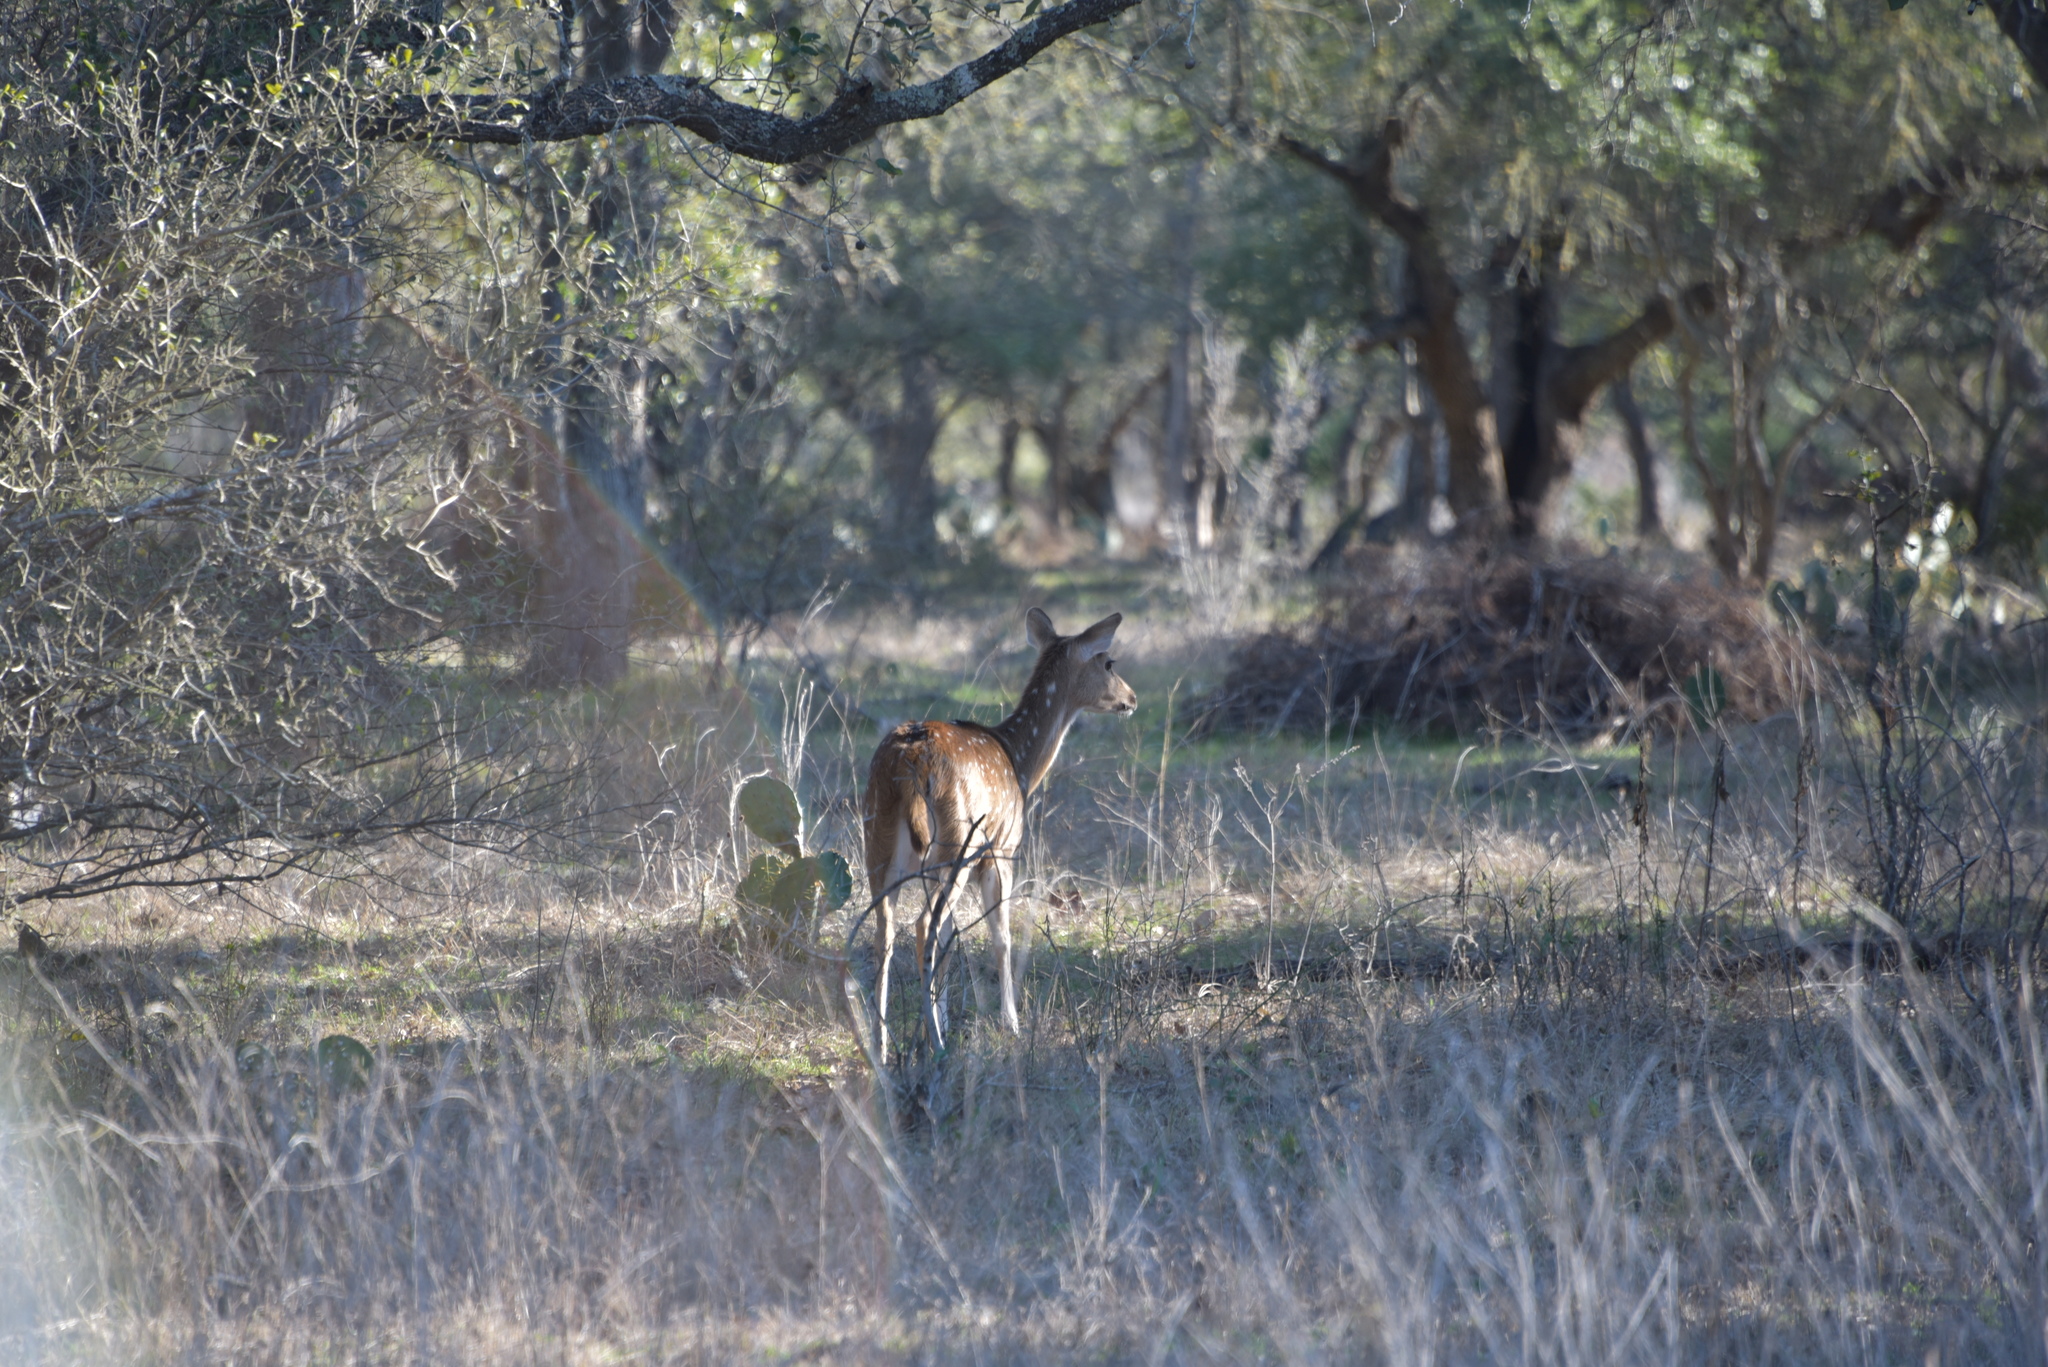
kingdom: Animalia
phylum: Chordata
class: Mammalia
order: Artiodactyla
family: Cervidae
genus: Axis
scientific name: Axis axis
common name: Chital
